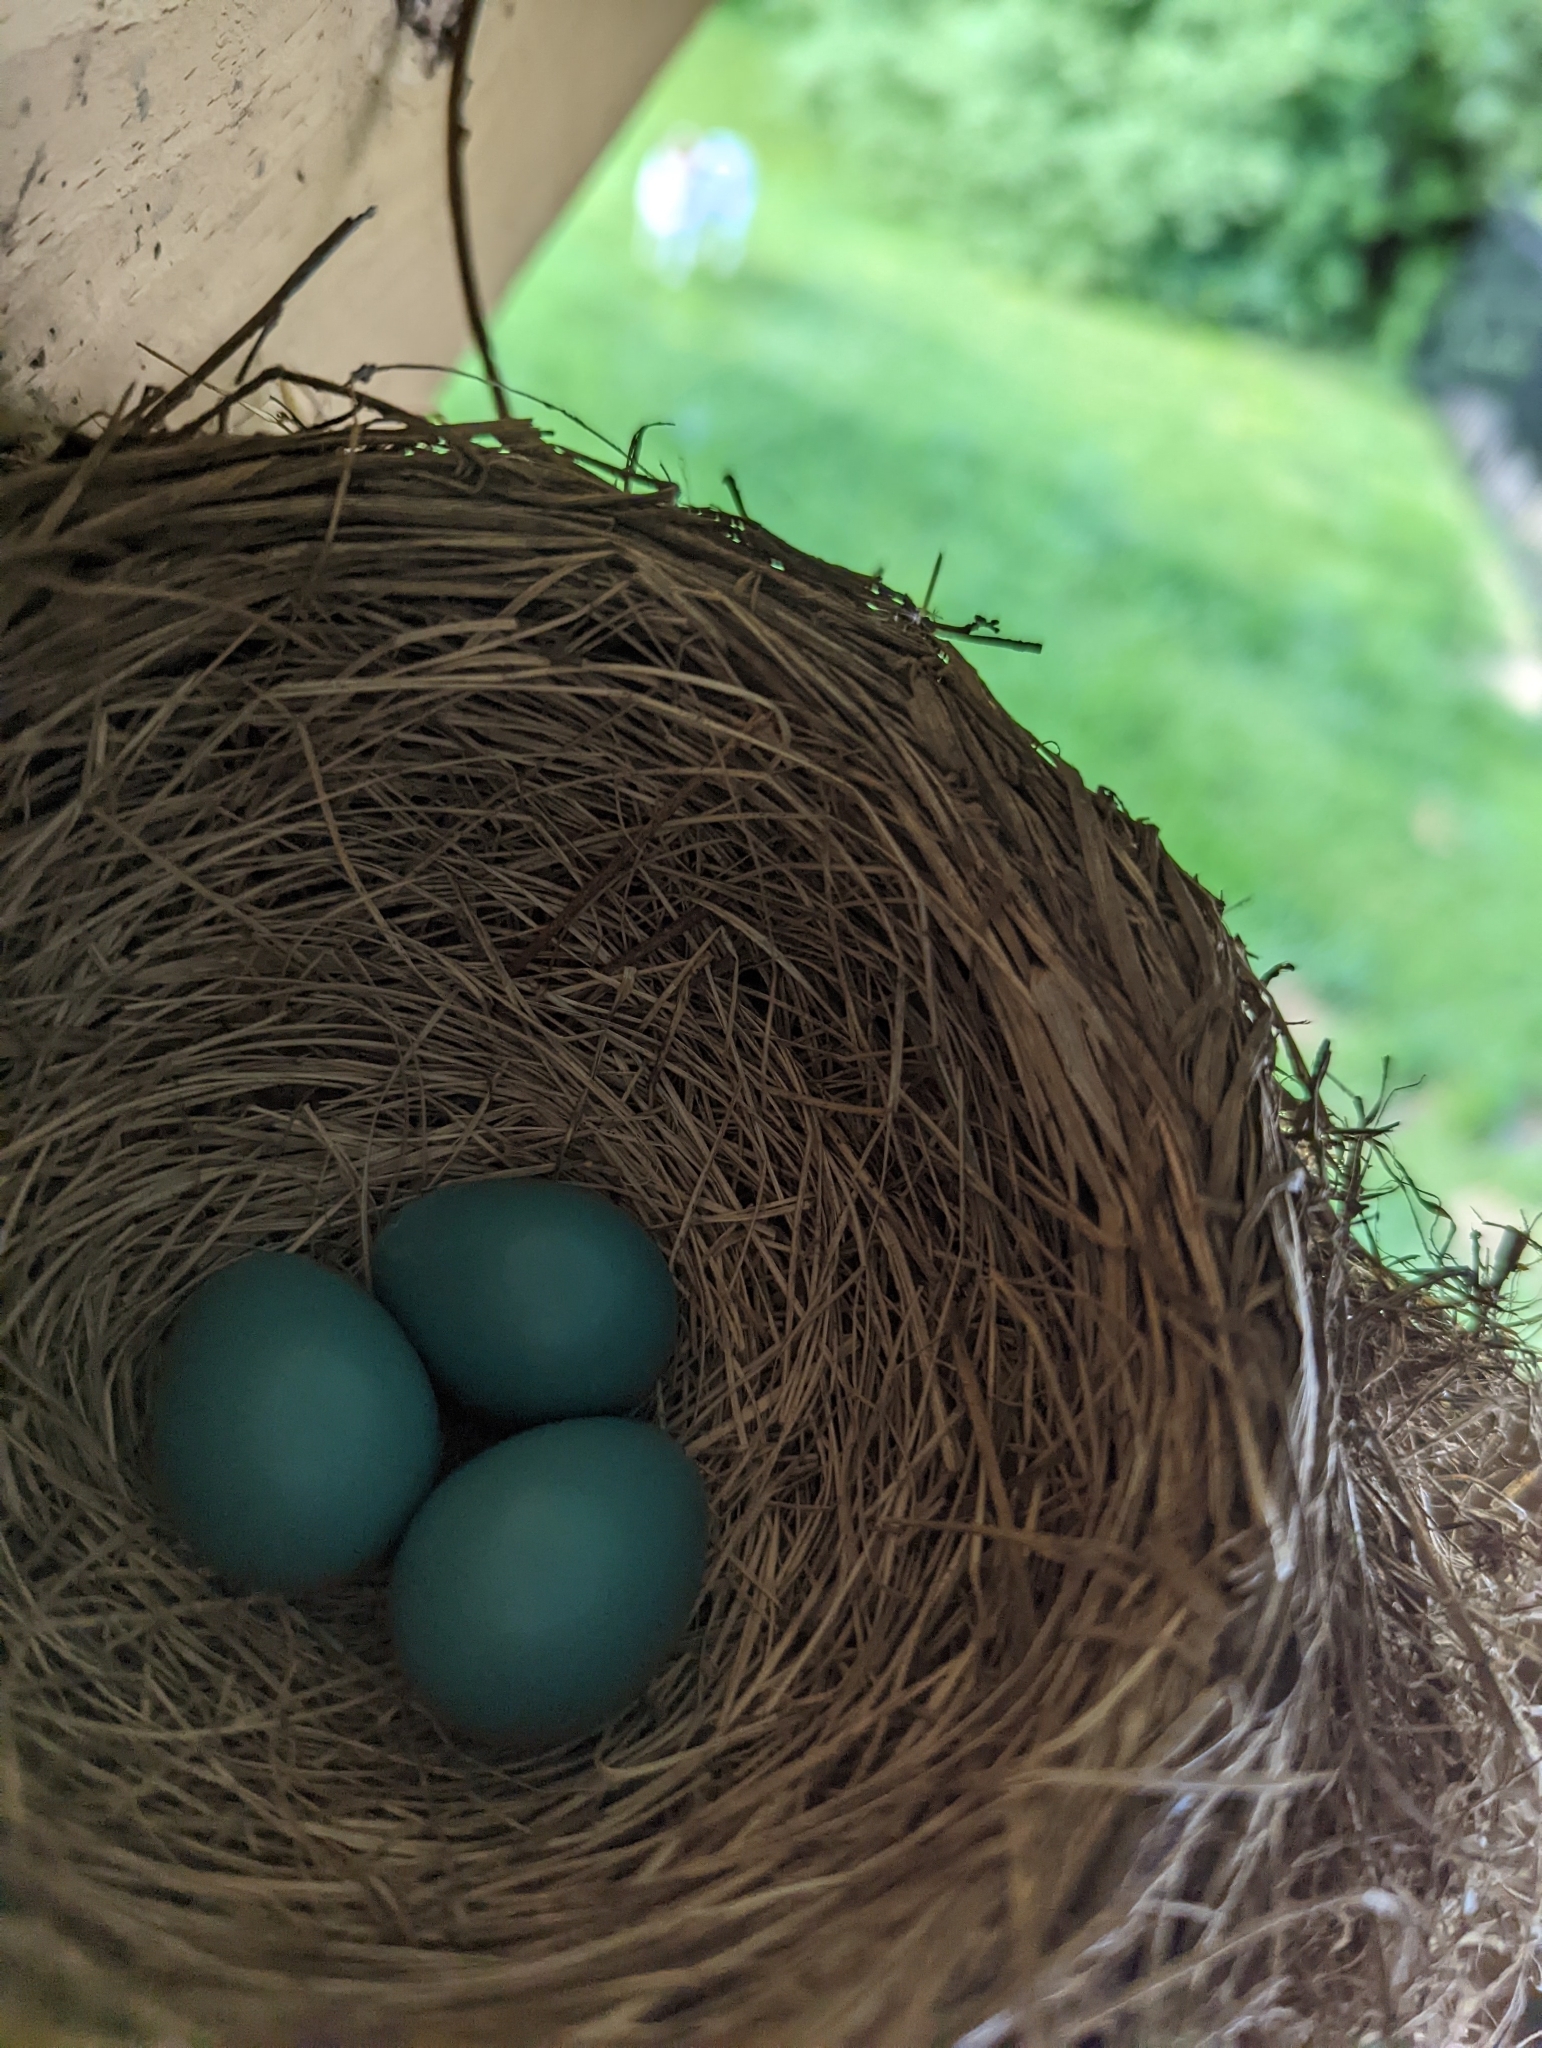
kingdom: Animalia
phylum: Chordata
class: Aves
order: Passeriformes
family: Turdidae
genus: Turdus
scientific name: Turdus migratorius
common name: American robin
